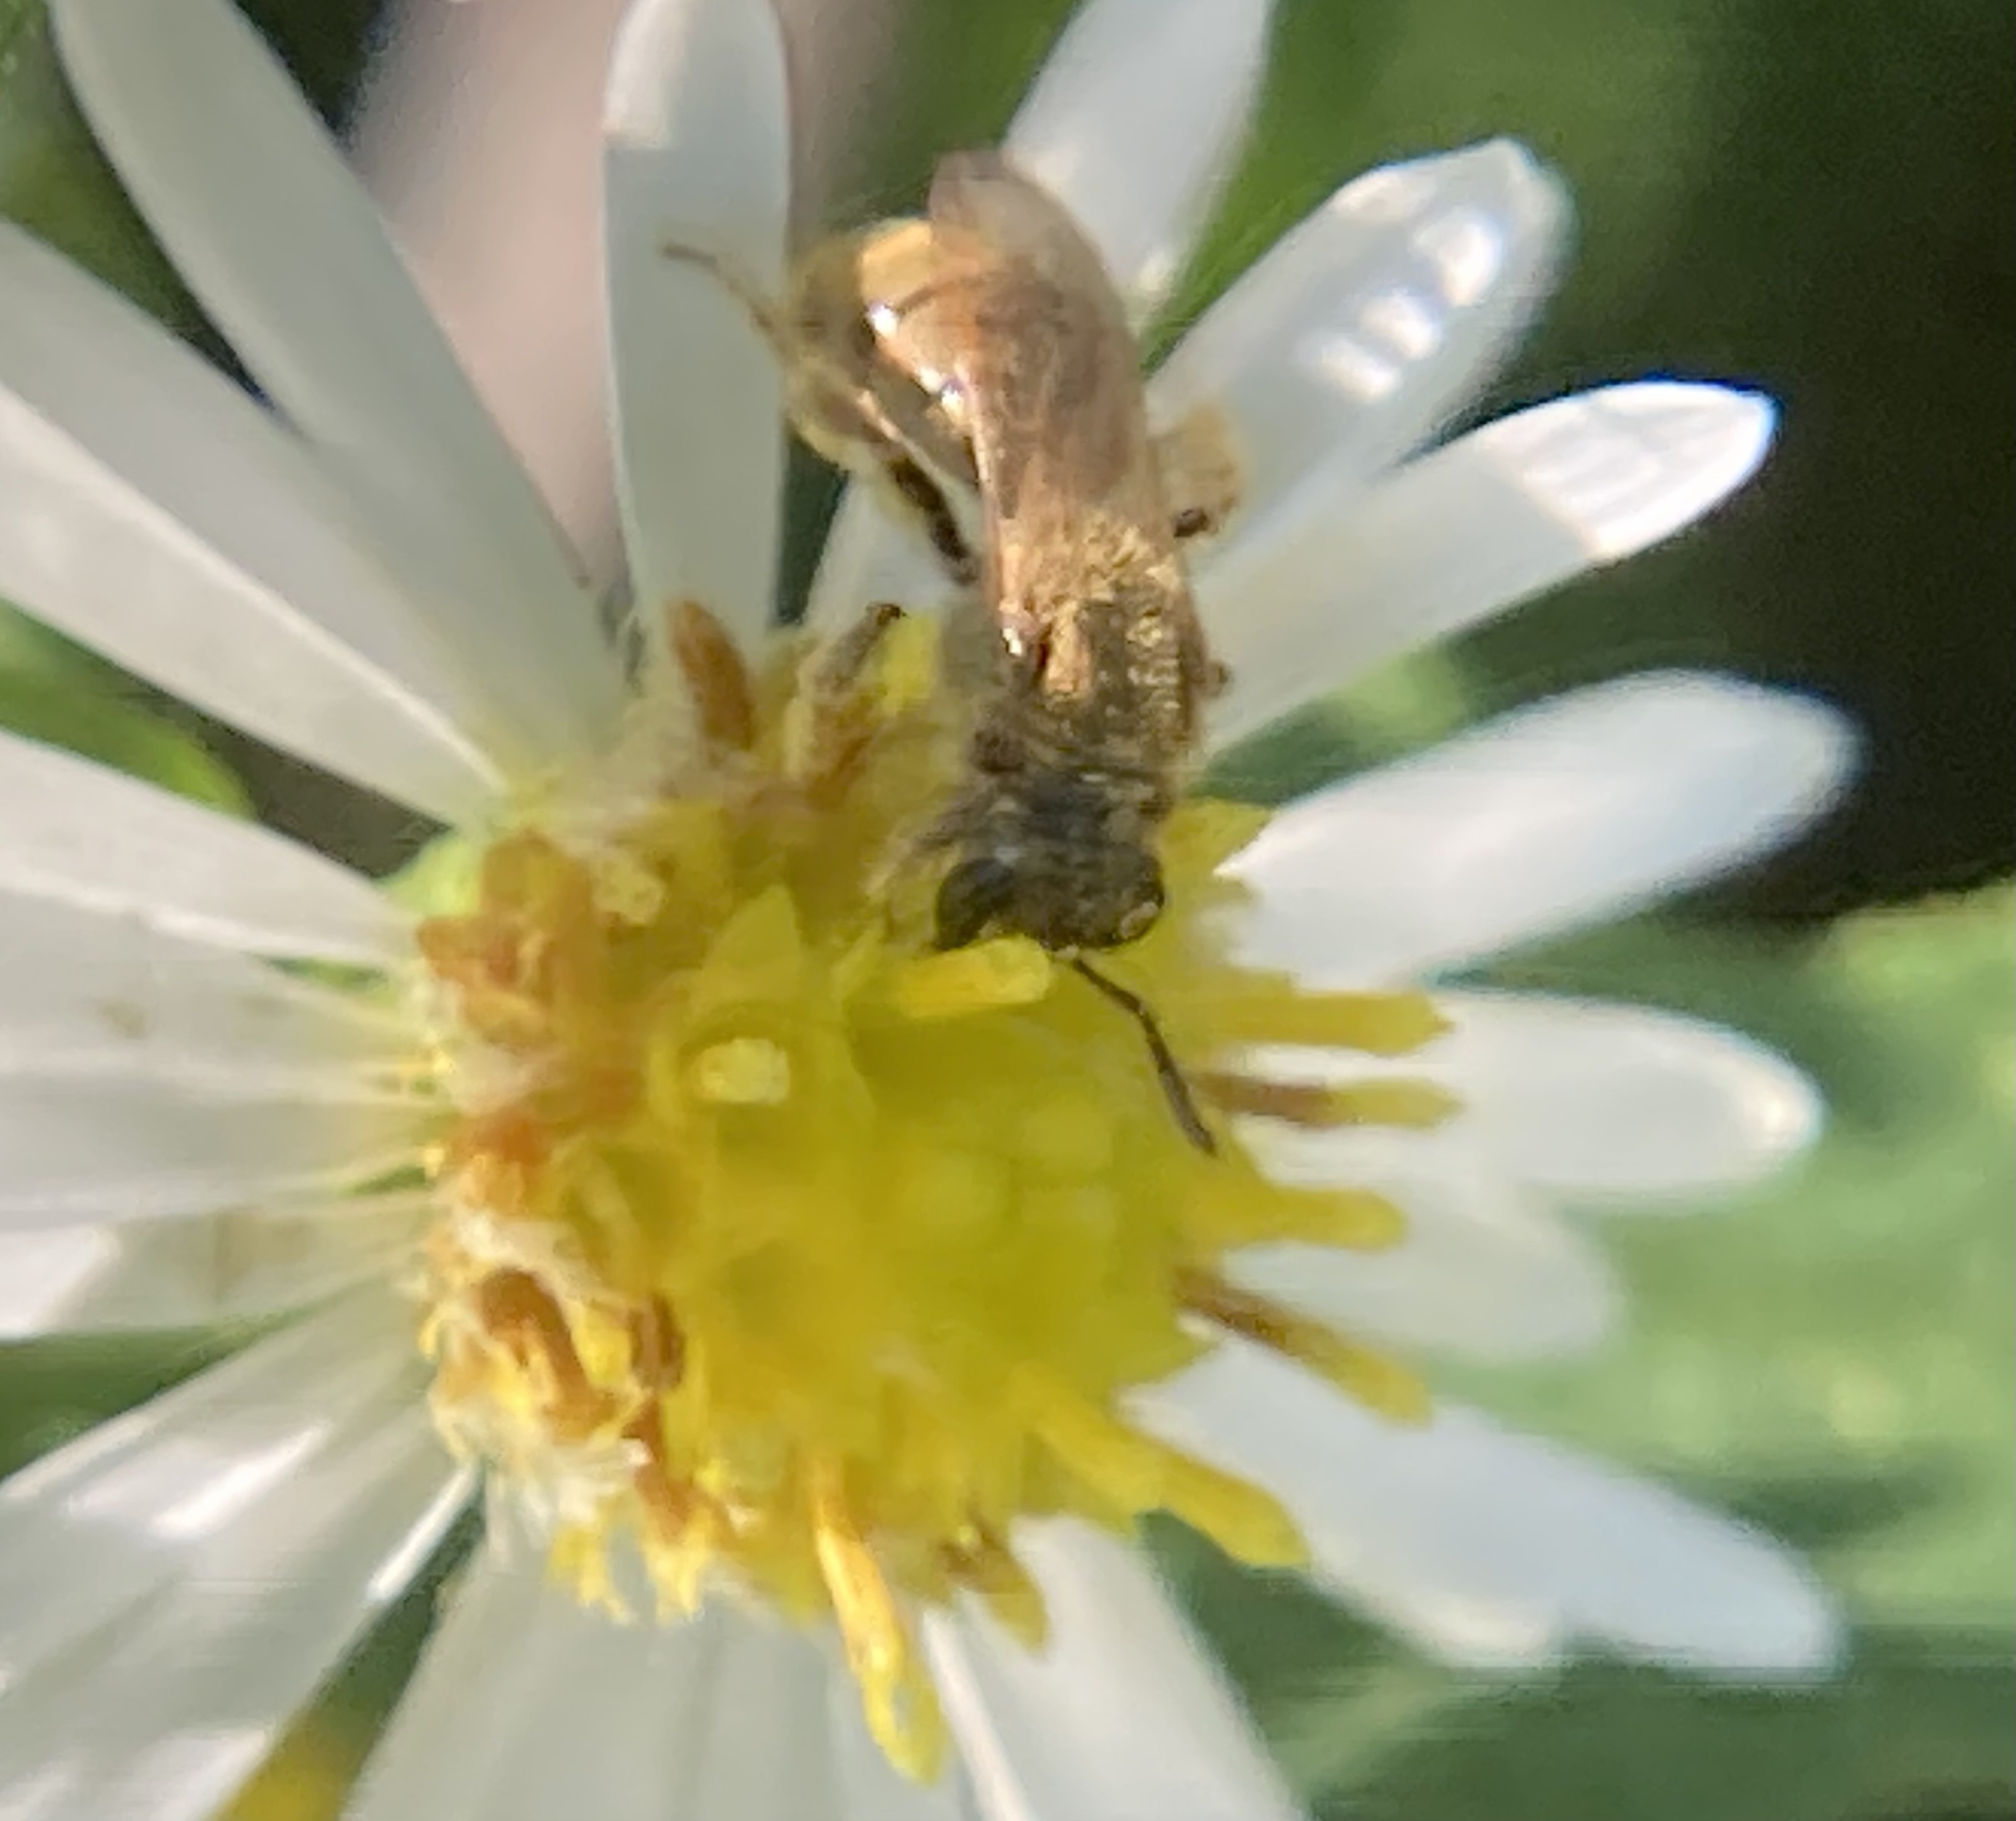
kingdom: Animalia
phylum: Arthropoda
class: Insecta
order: Hymenoptera
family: Halictidae
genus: Lasioglossum
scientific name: Lasioglossum
